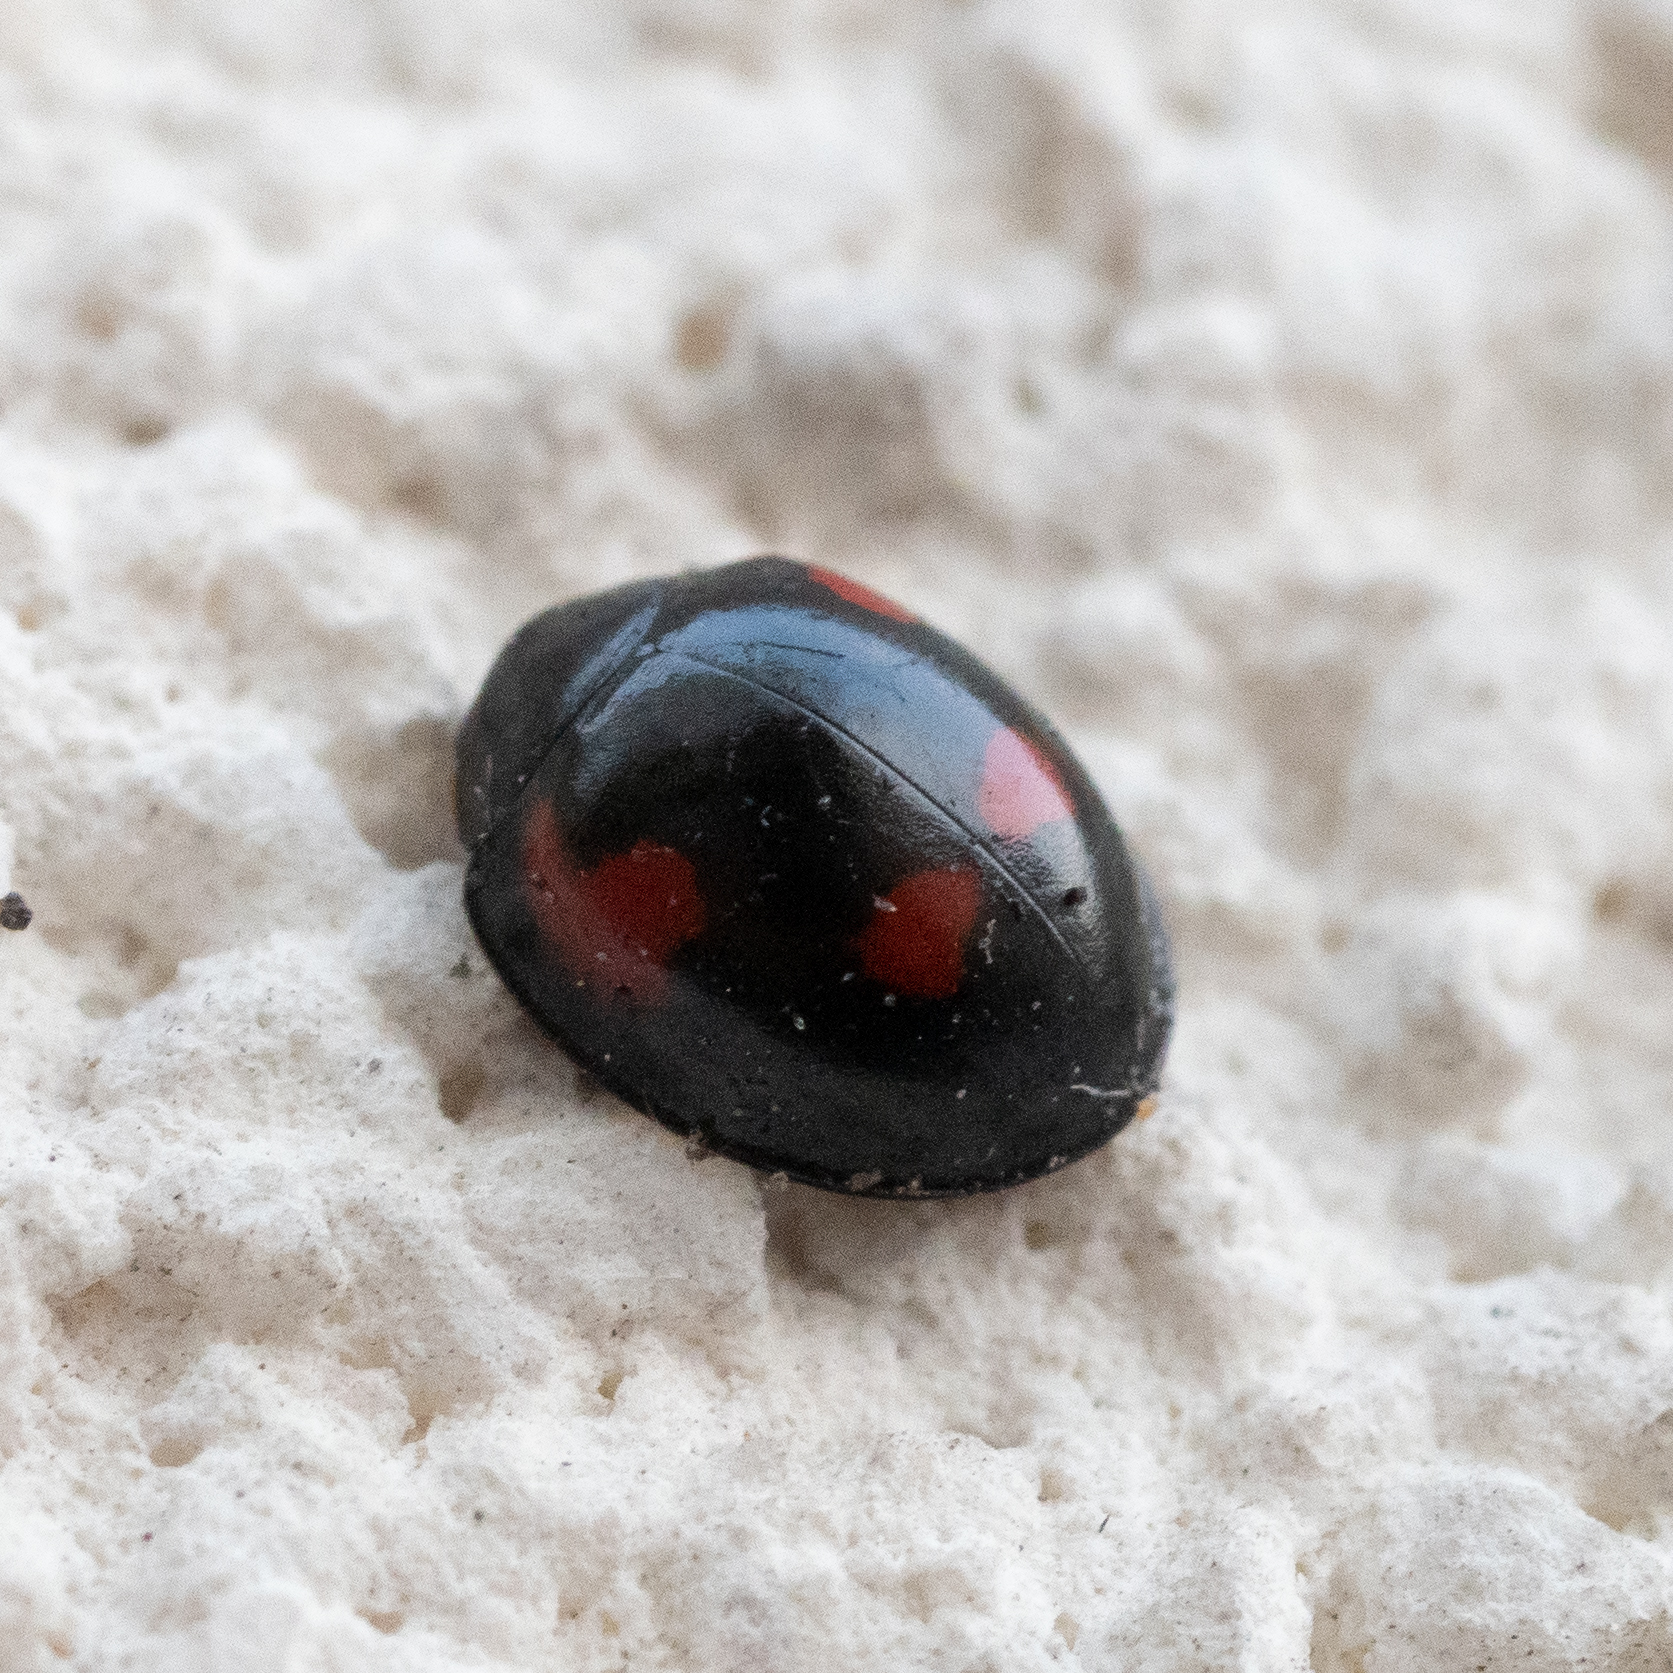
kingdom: Animalia
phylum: Arthropoda
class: Insecta
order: Coleoptera
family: Coccinellidae
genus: Brumus
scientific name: Brumus quadripustulatus
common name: Ladybird beetle
